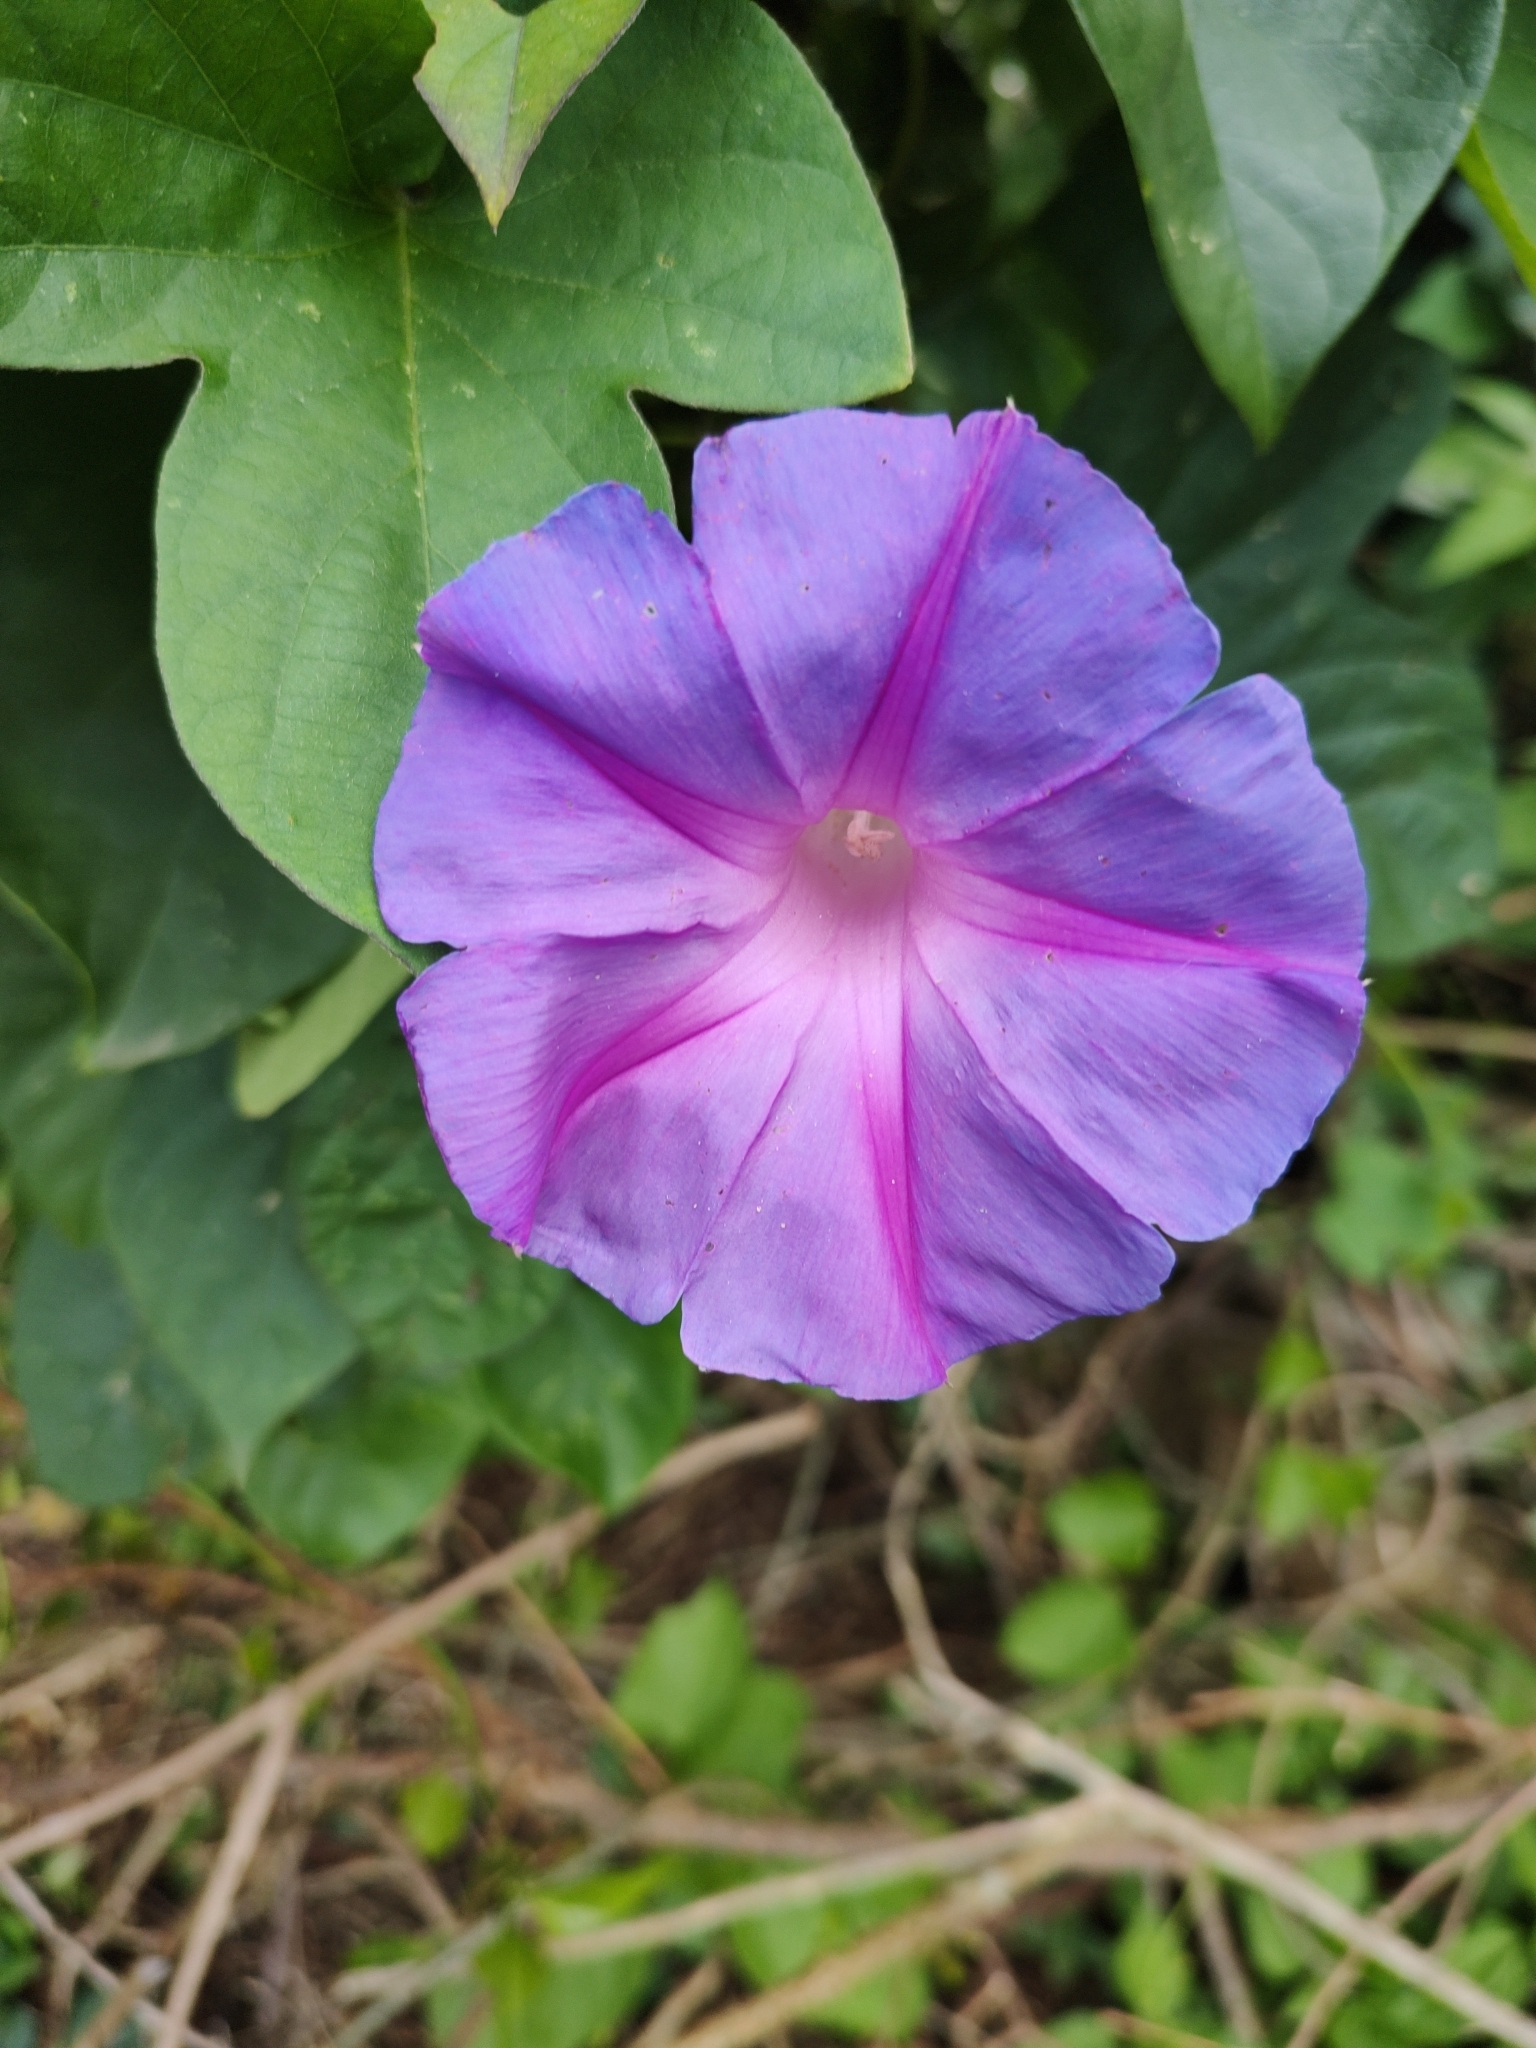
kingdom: Plantae
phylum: Tracheophyta
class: Magnoliopsida
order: Solanales
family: Convolvulaceae
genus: Ipomoea
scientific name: Ipomoea indica
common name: Blue dawnflower
